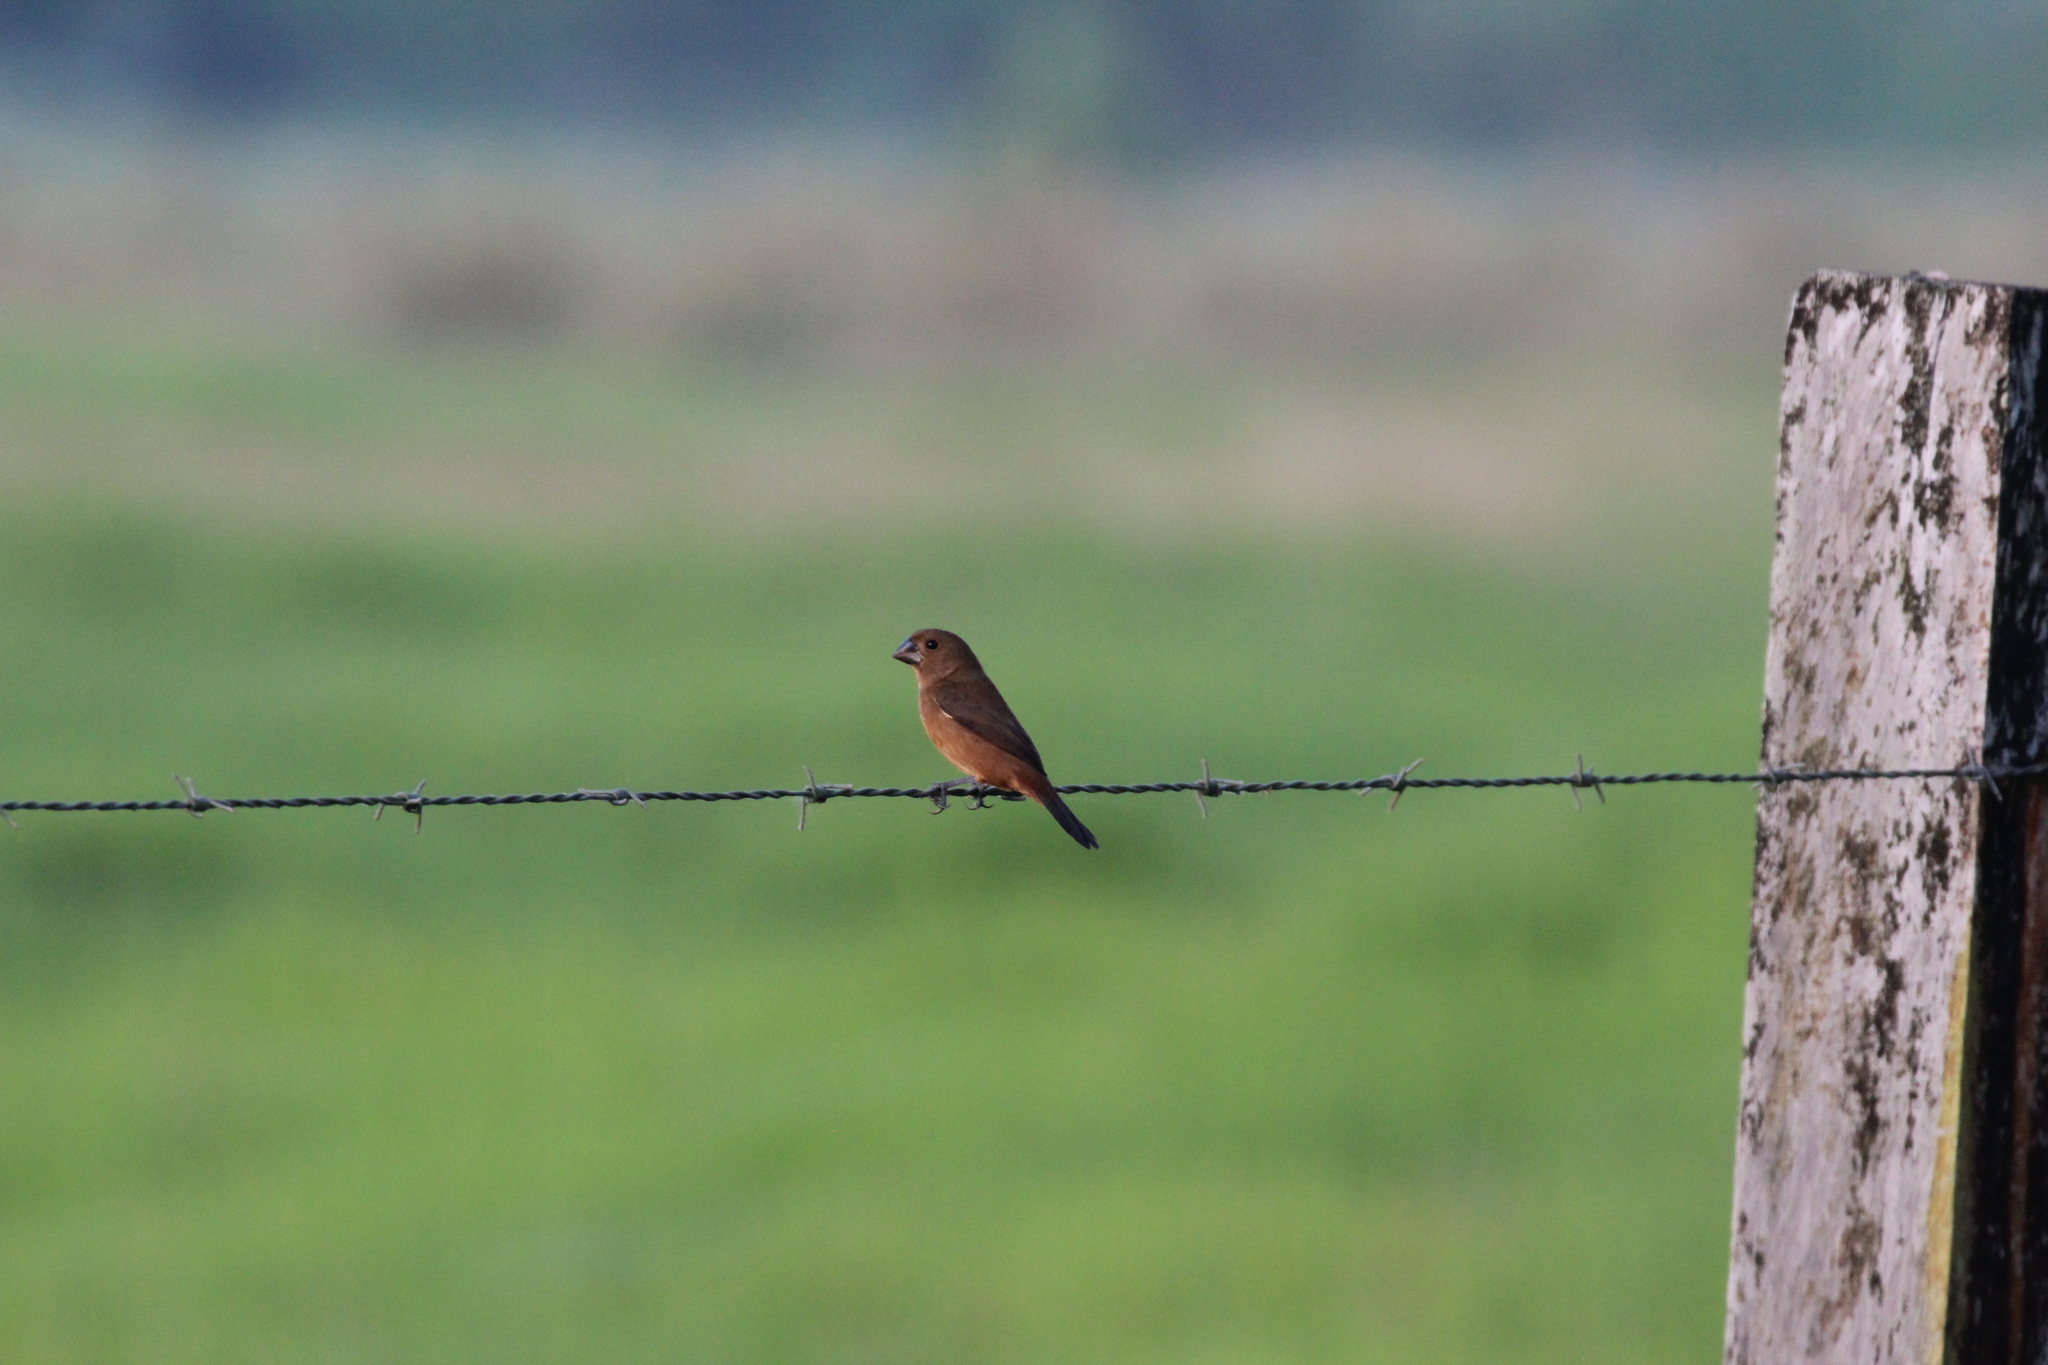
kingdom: Animalia
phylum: Chordata
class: Aves
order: Passeriformes
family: Thraupidae
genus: Sporophila
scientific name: Sporophila funerea
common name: Thick-billed seed-finch
